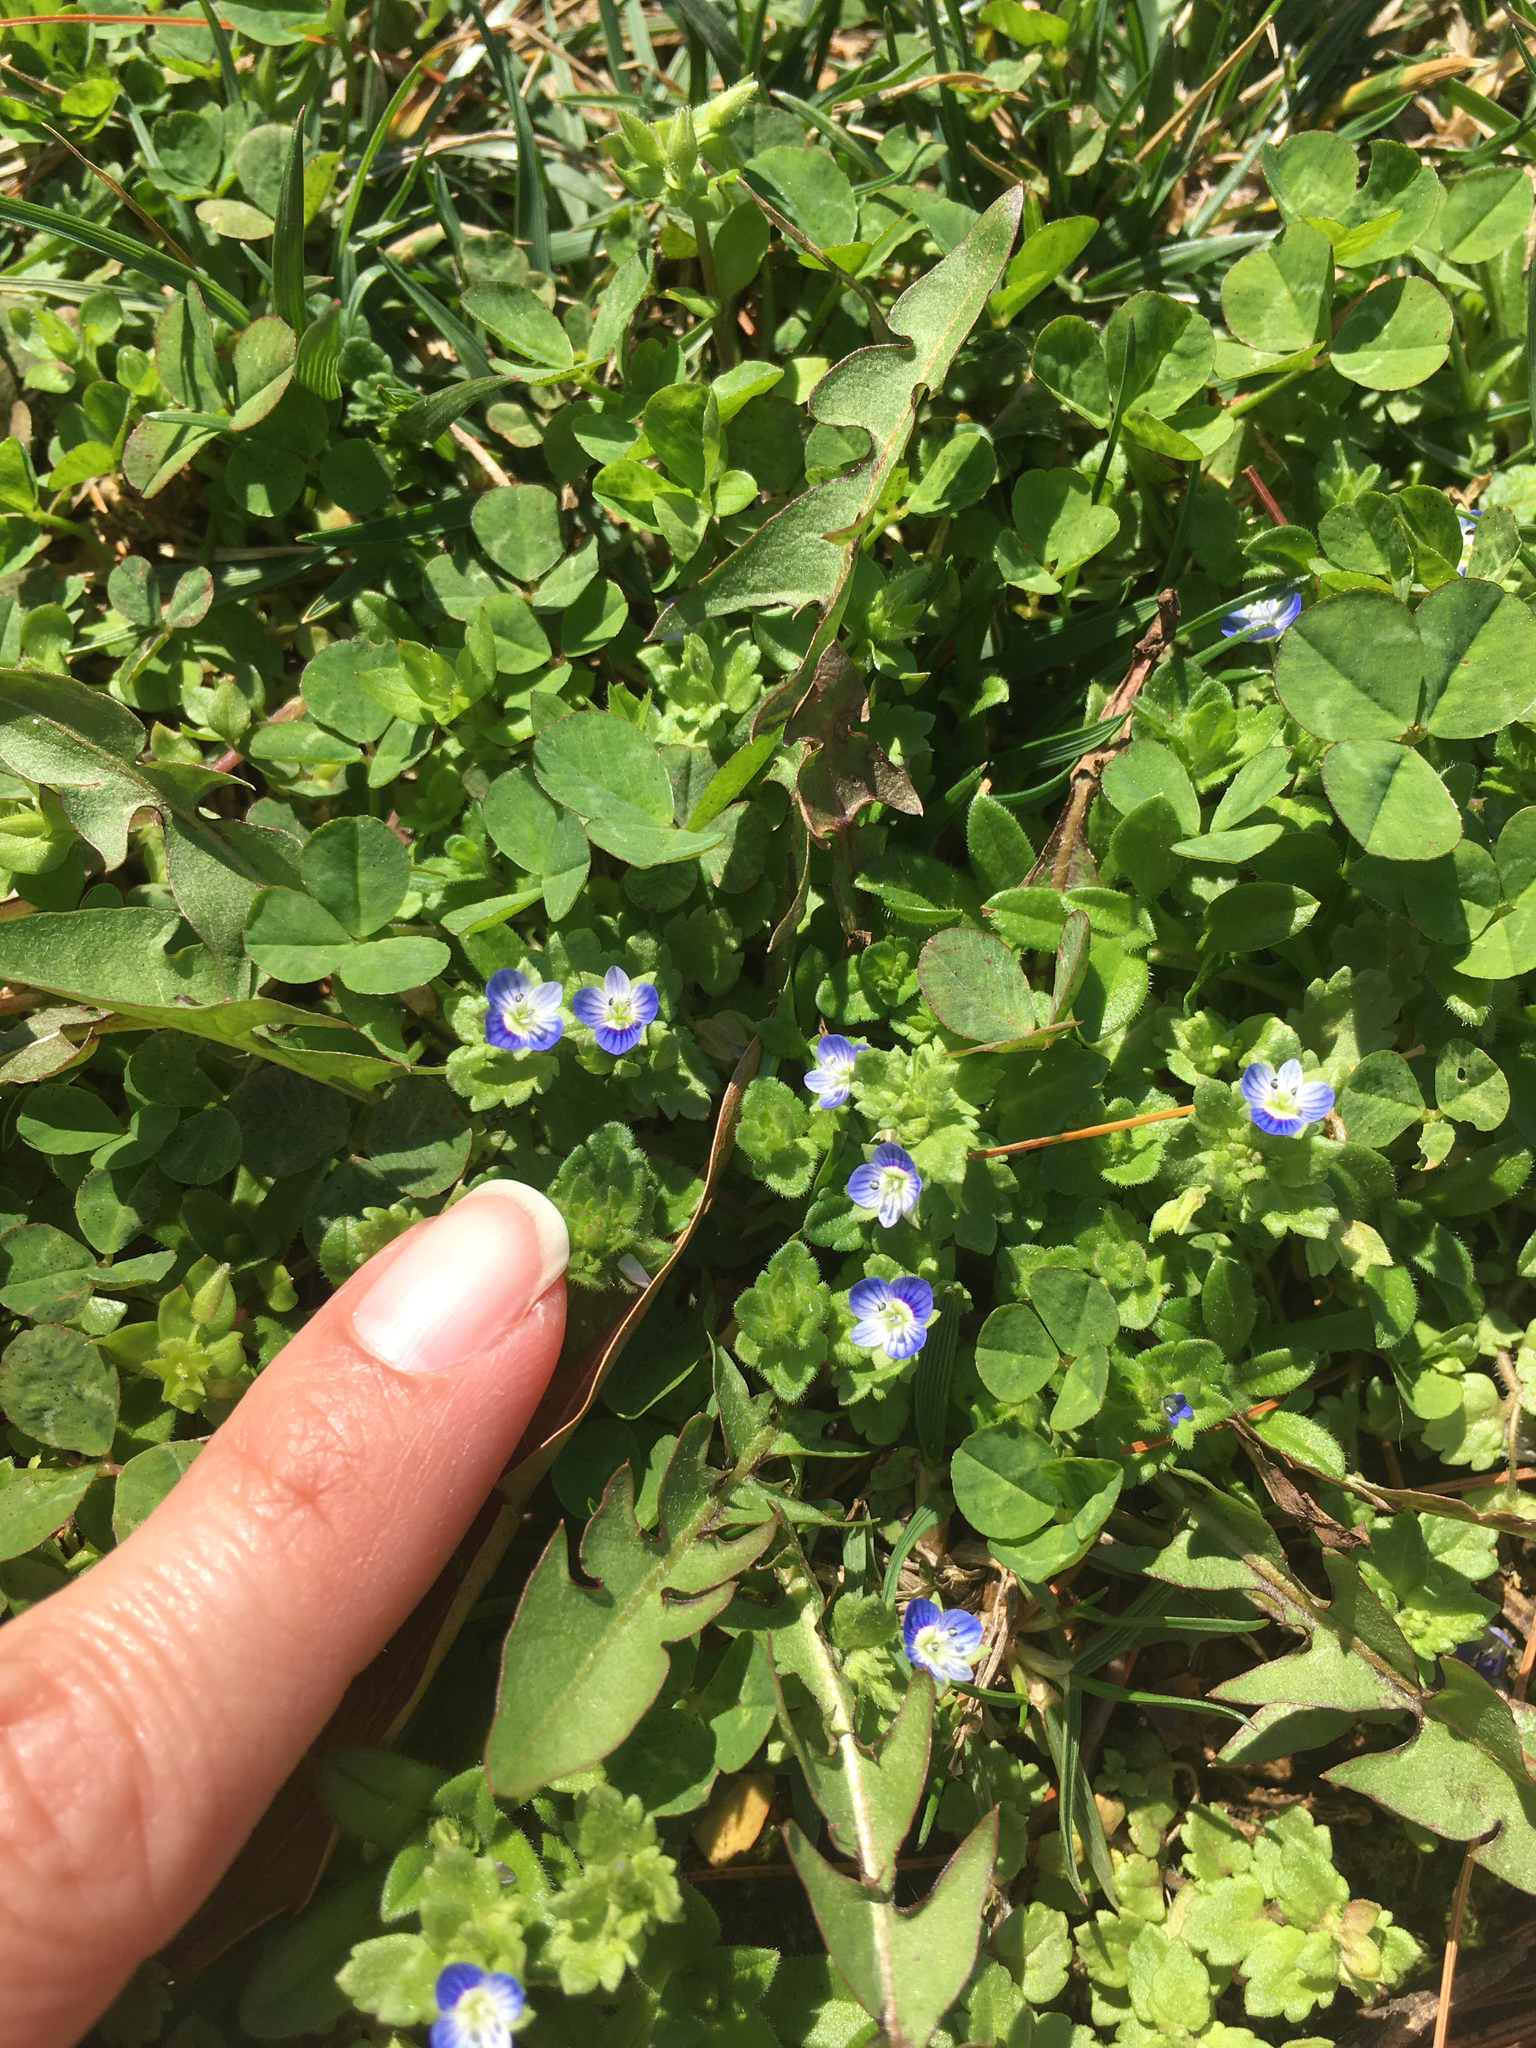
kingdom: Plantae
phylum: Tracheophyta
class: Magnoliopsida
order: Lamiales
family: Plantaginaceae
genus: Veronica
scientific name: Veronica persica
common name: Common field-speedwell
